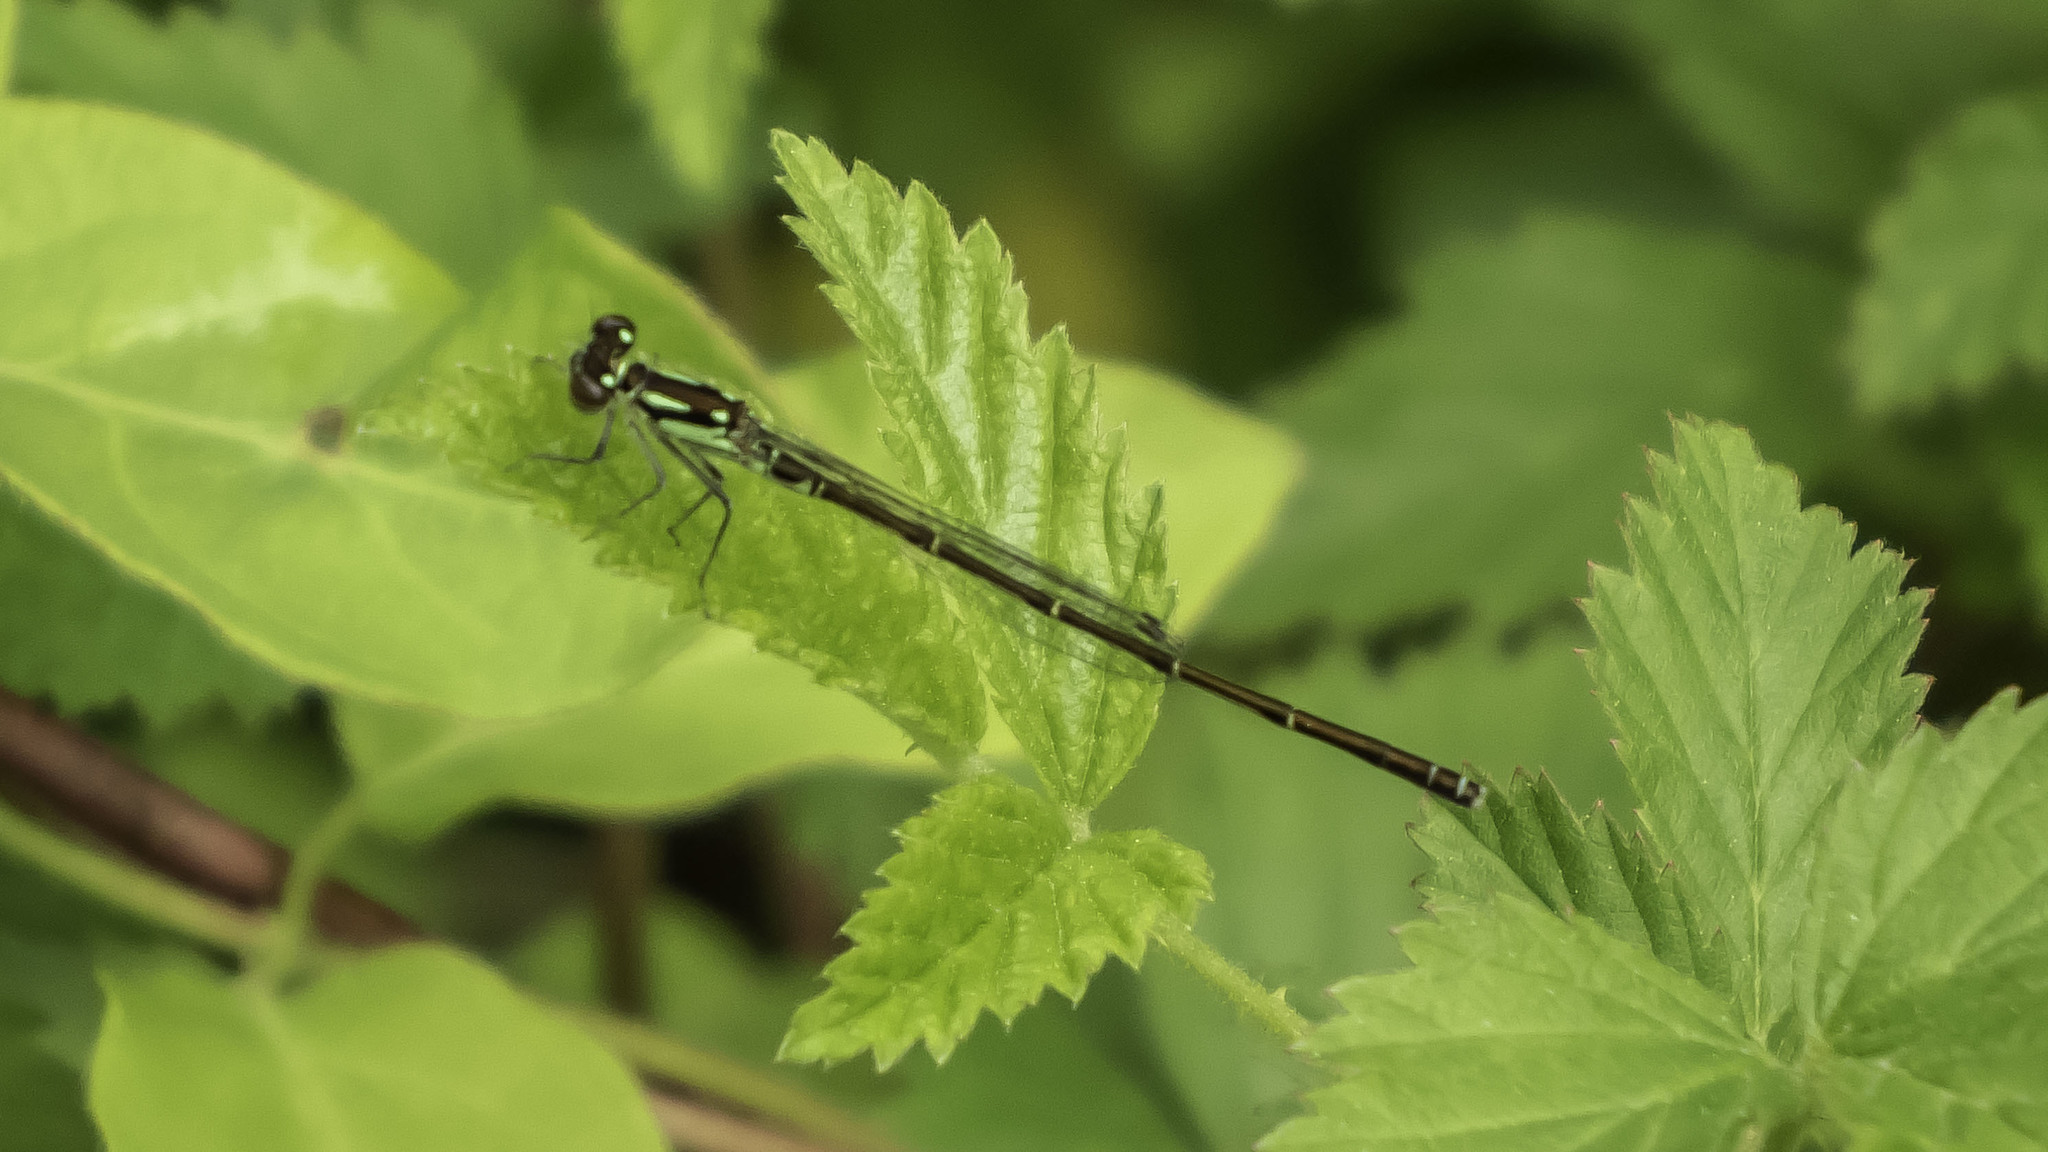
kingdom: Animalia
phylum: Arthropoda
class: Insecta
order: Odonata
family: Coenagrionidae
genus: Ischnura
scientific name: Ischnura posita
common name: Fragile forktail
